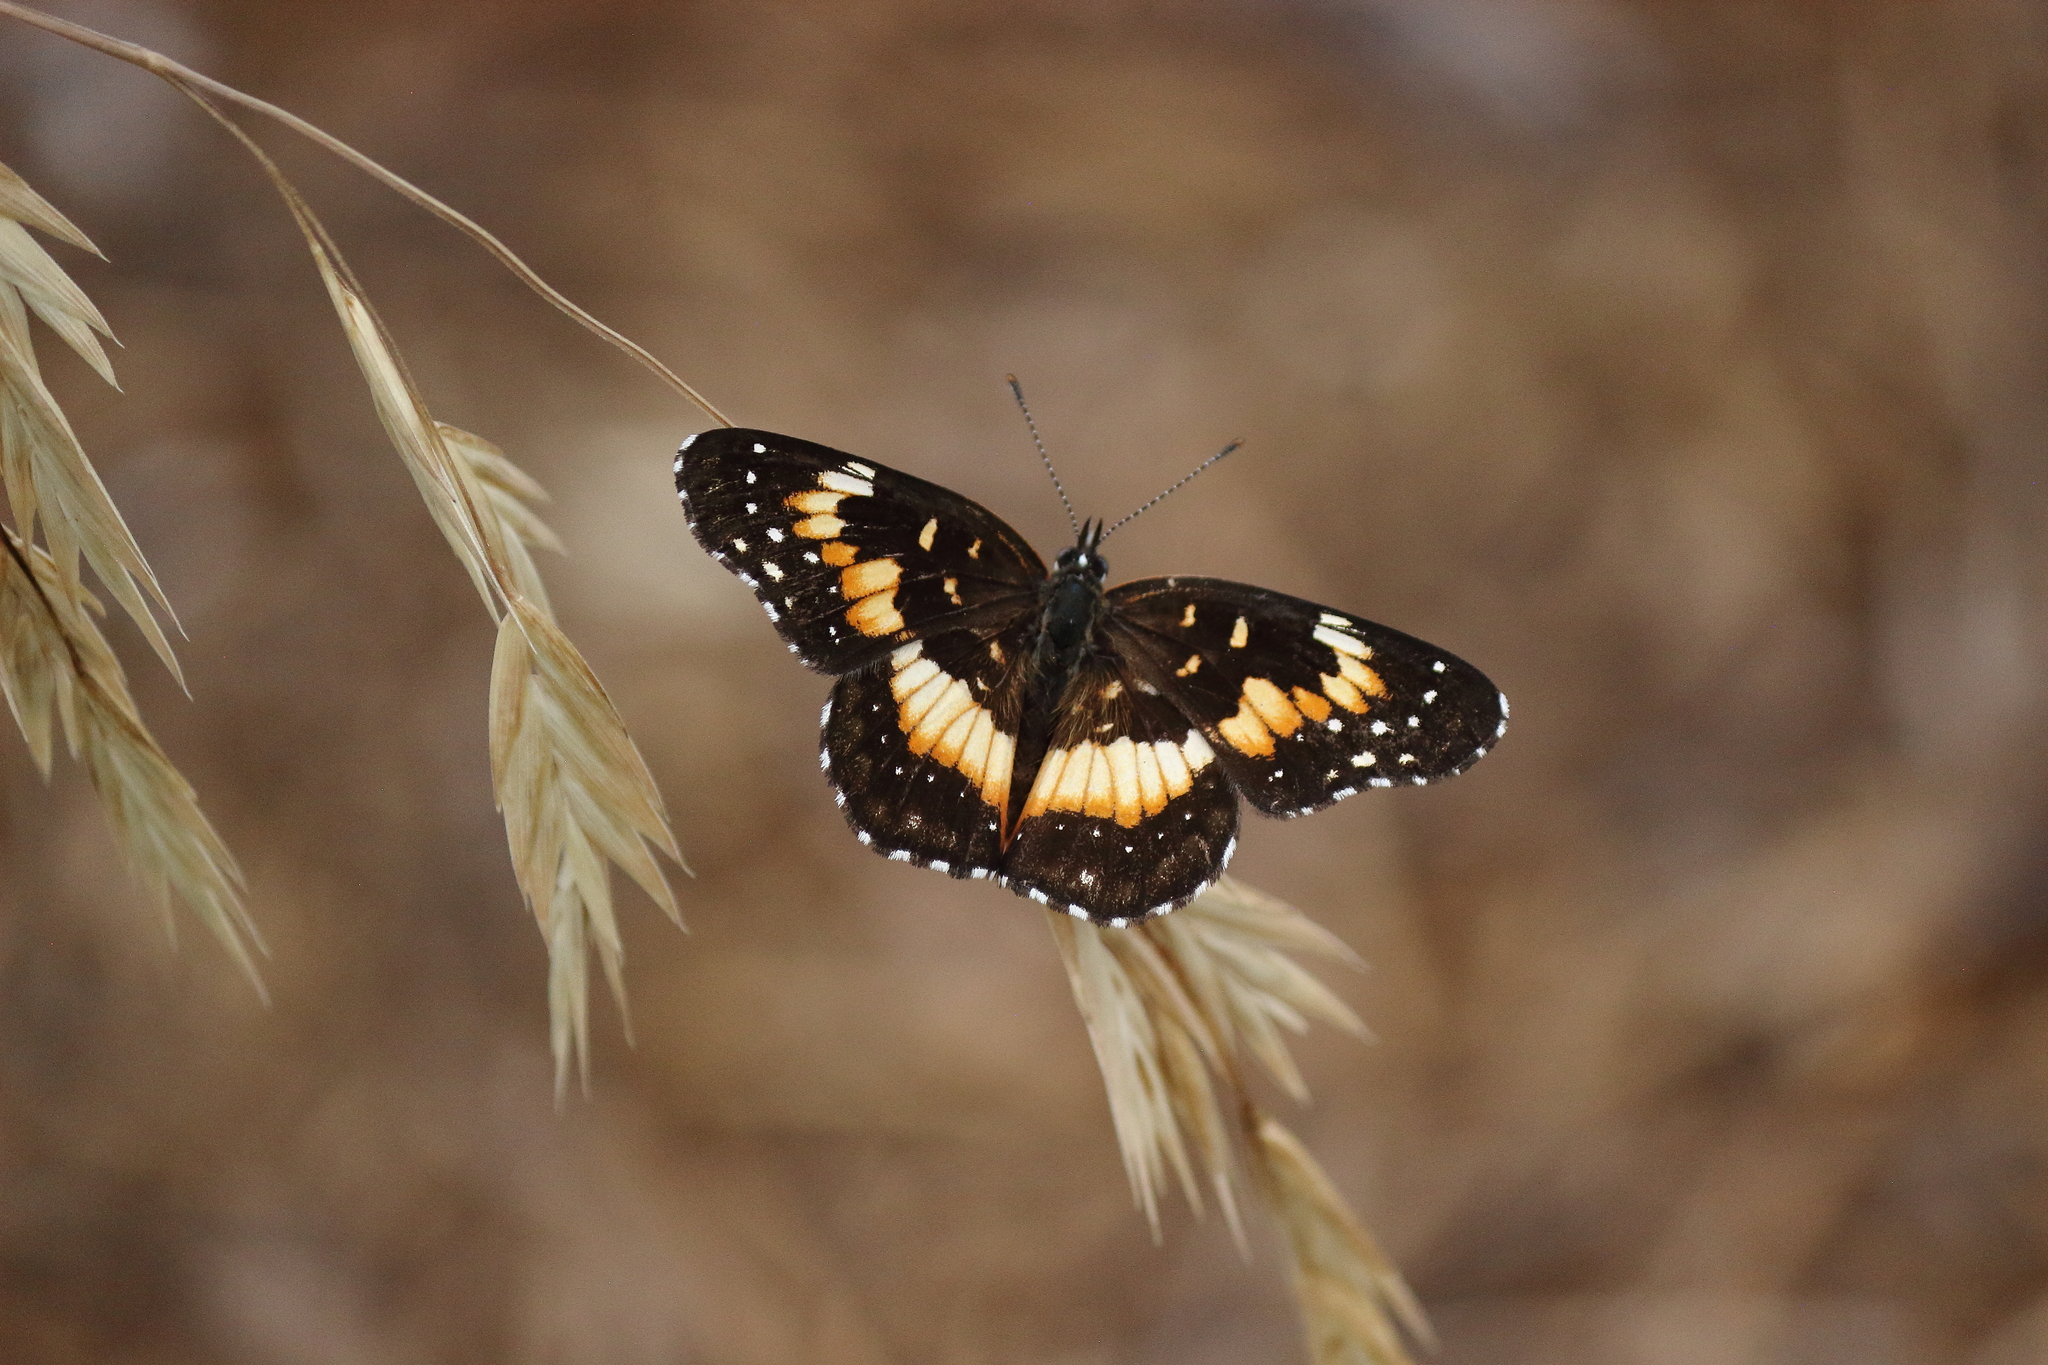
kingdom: Animalia
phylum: Arthropoda
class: Insecta
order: Lepidoptera
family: Nymphalidae
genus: Chlosyne
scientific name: Chlosyne lacinia
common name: Bordered patch
